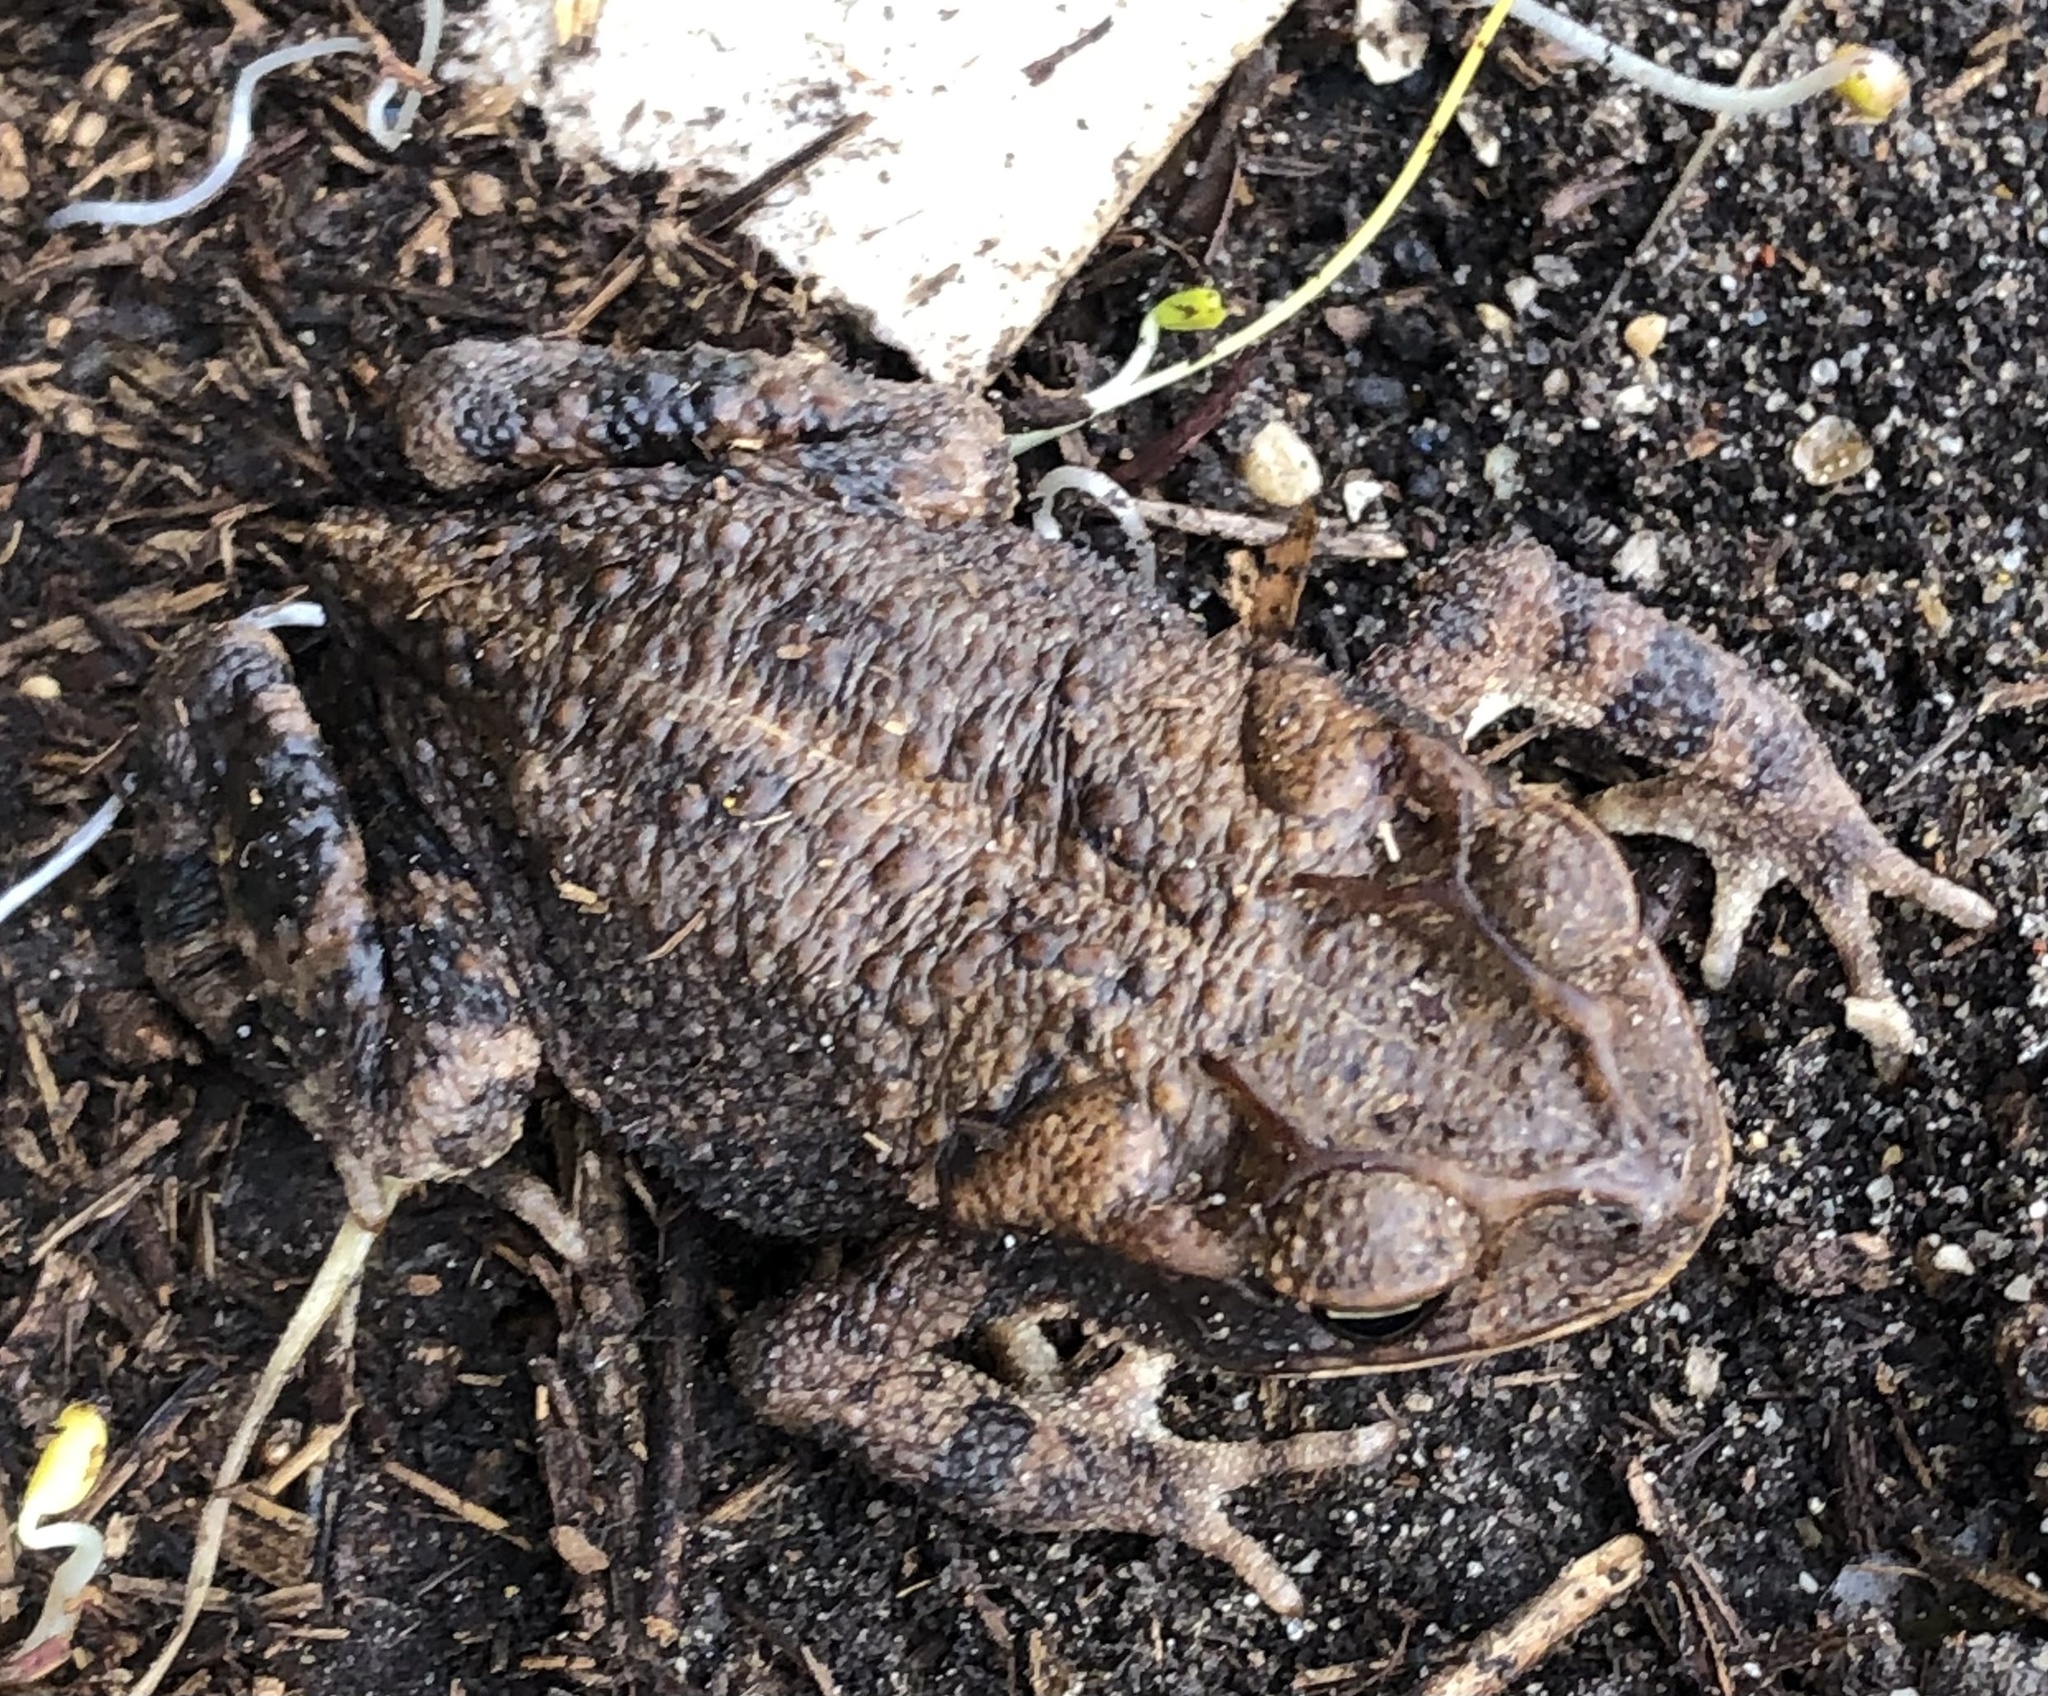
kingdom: Animalia
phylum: Chordata
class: Amphibia
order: Anura
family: Bufonidae
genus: Incilius
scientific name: Incilius nebulifer
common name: Gulf coast toad
